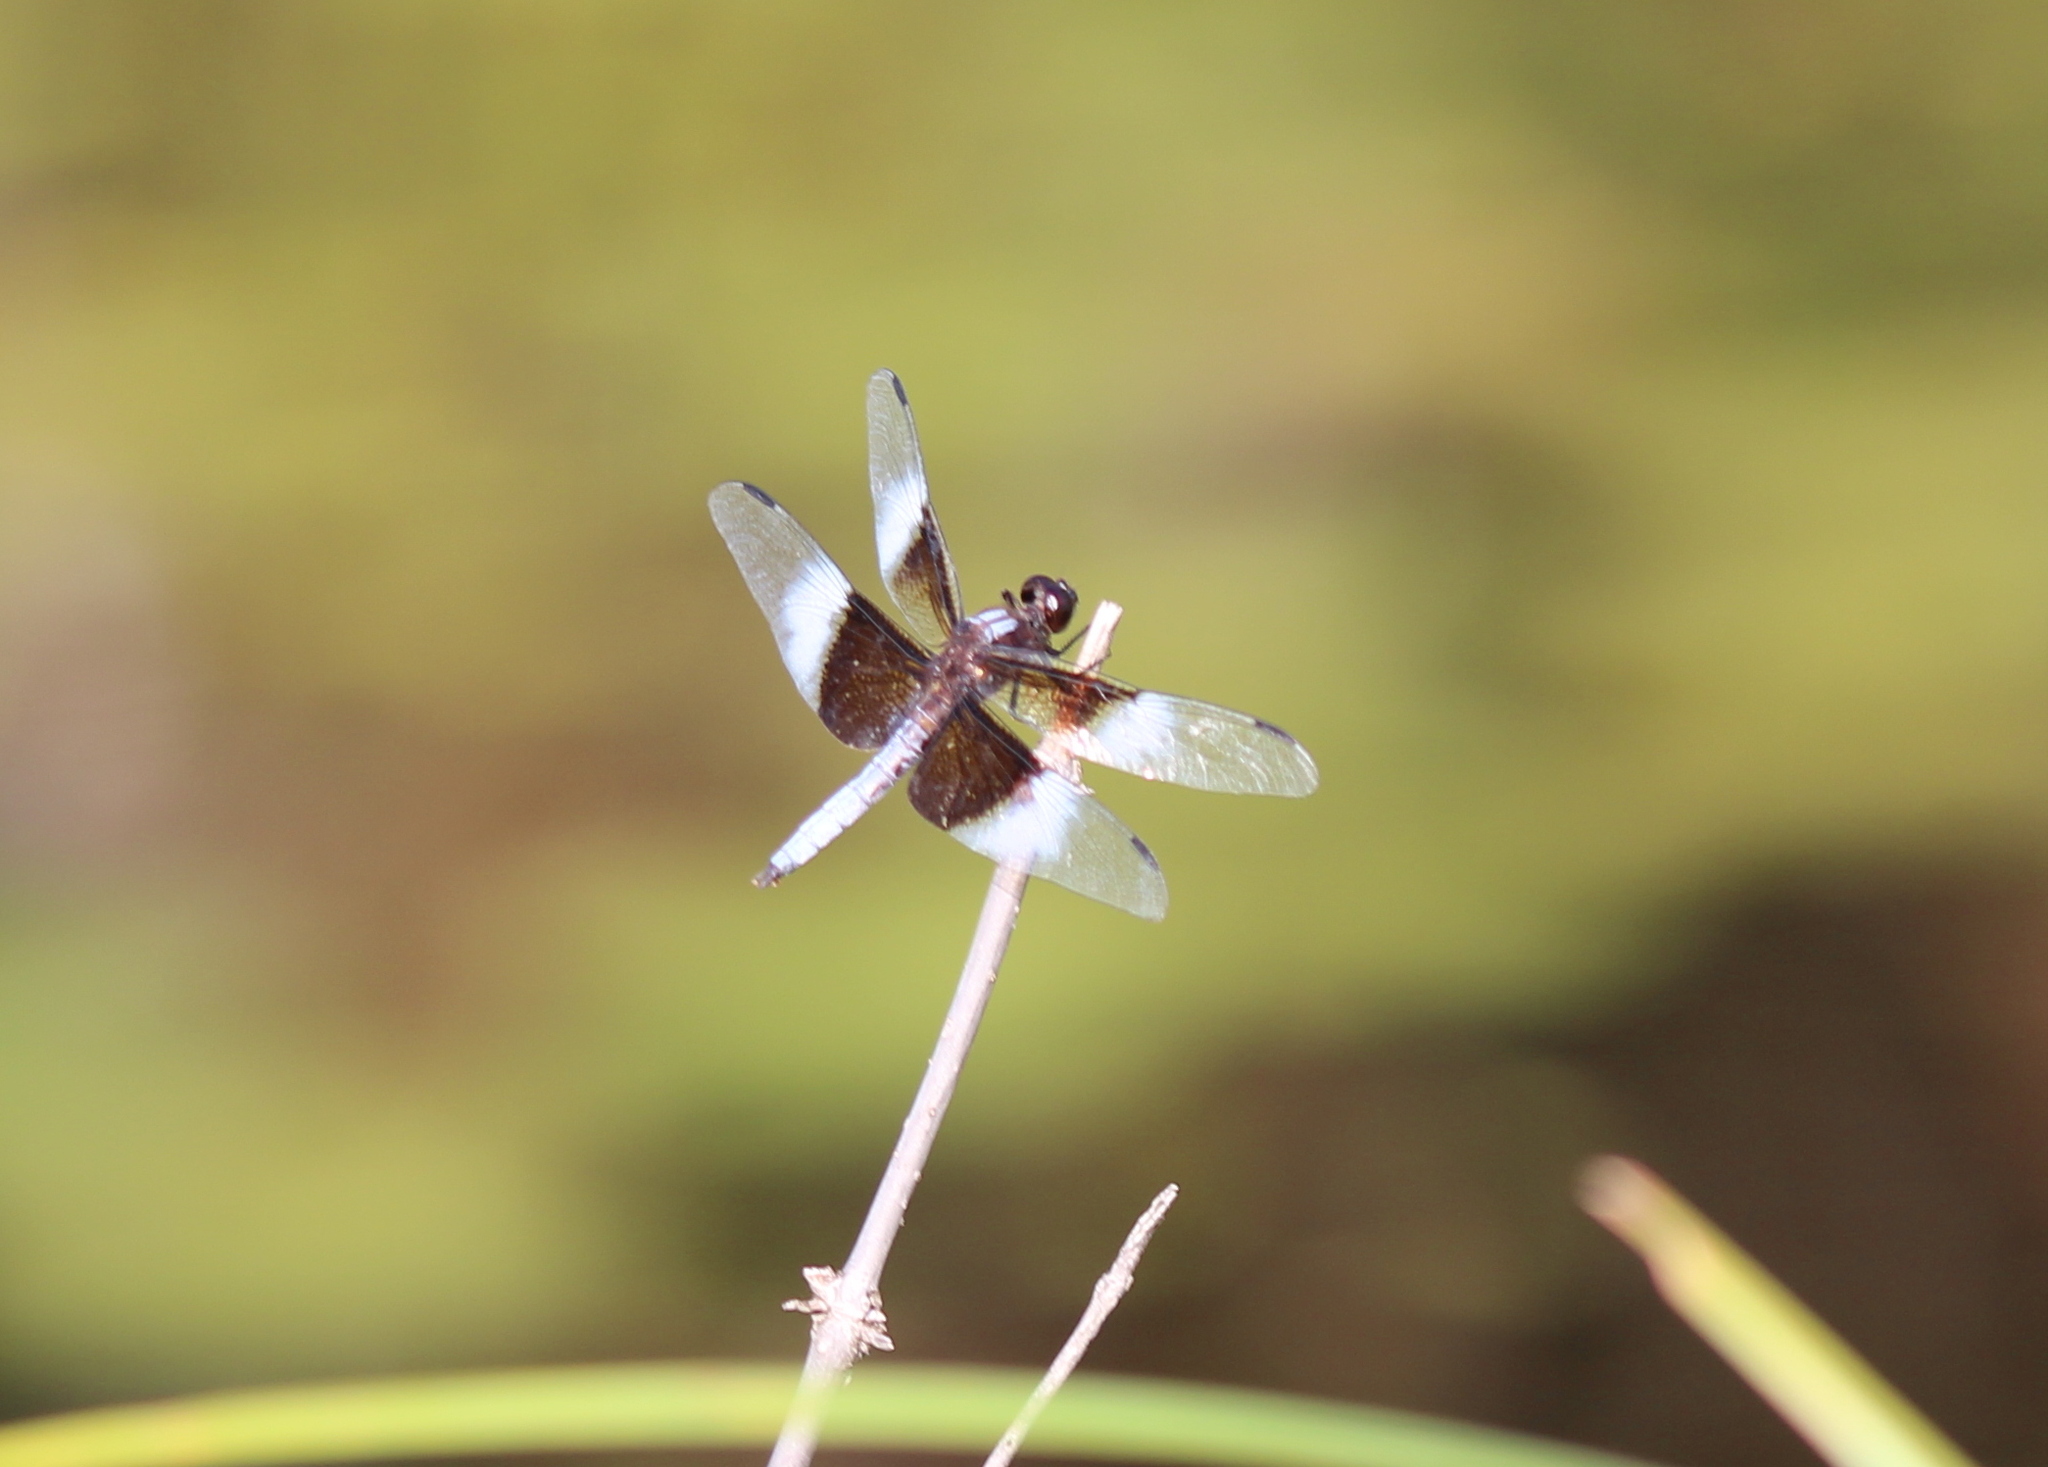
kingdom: Animalia
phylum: Arthropoda
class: Insecta
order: Odonata
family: Libellulidae
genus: Libellula
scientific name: Libellula luctuosa
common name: Widow skimmer
